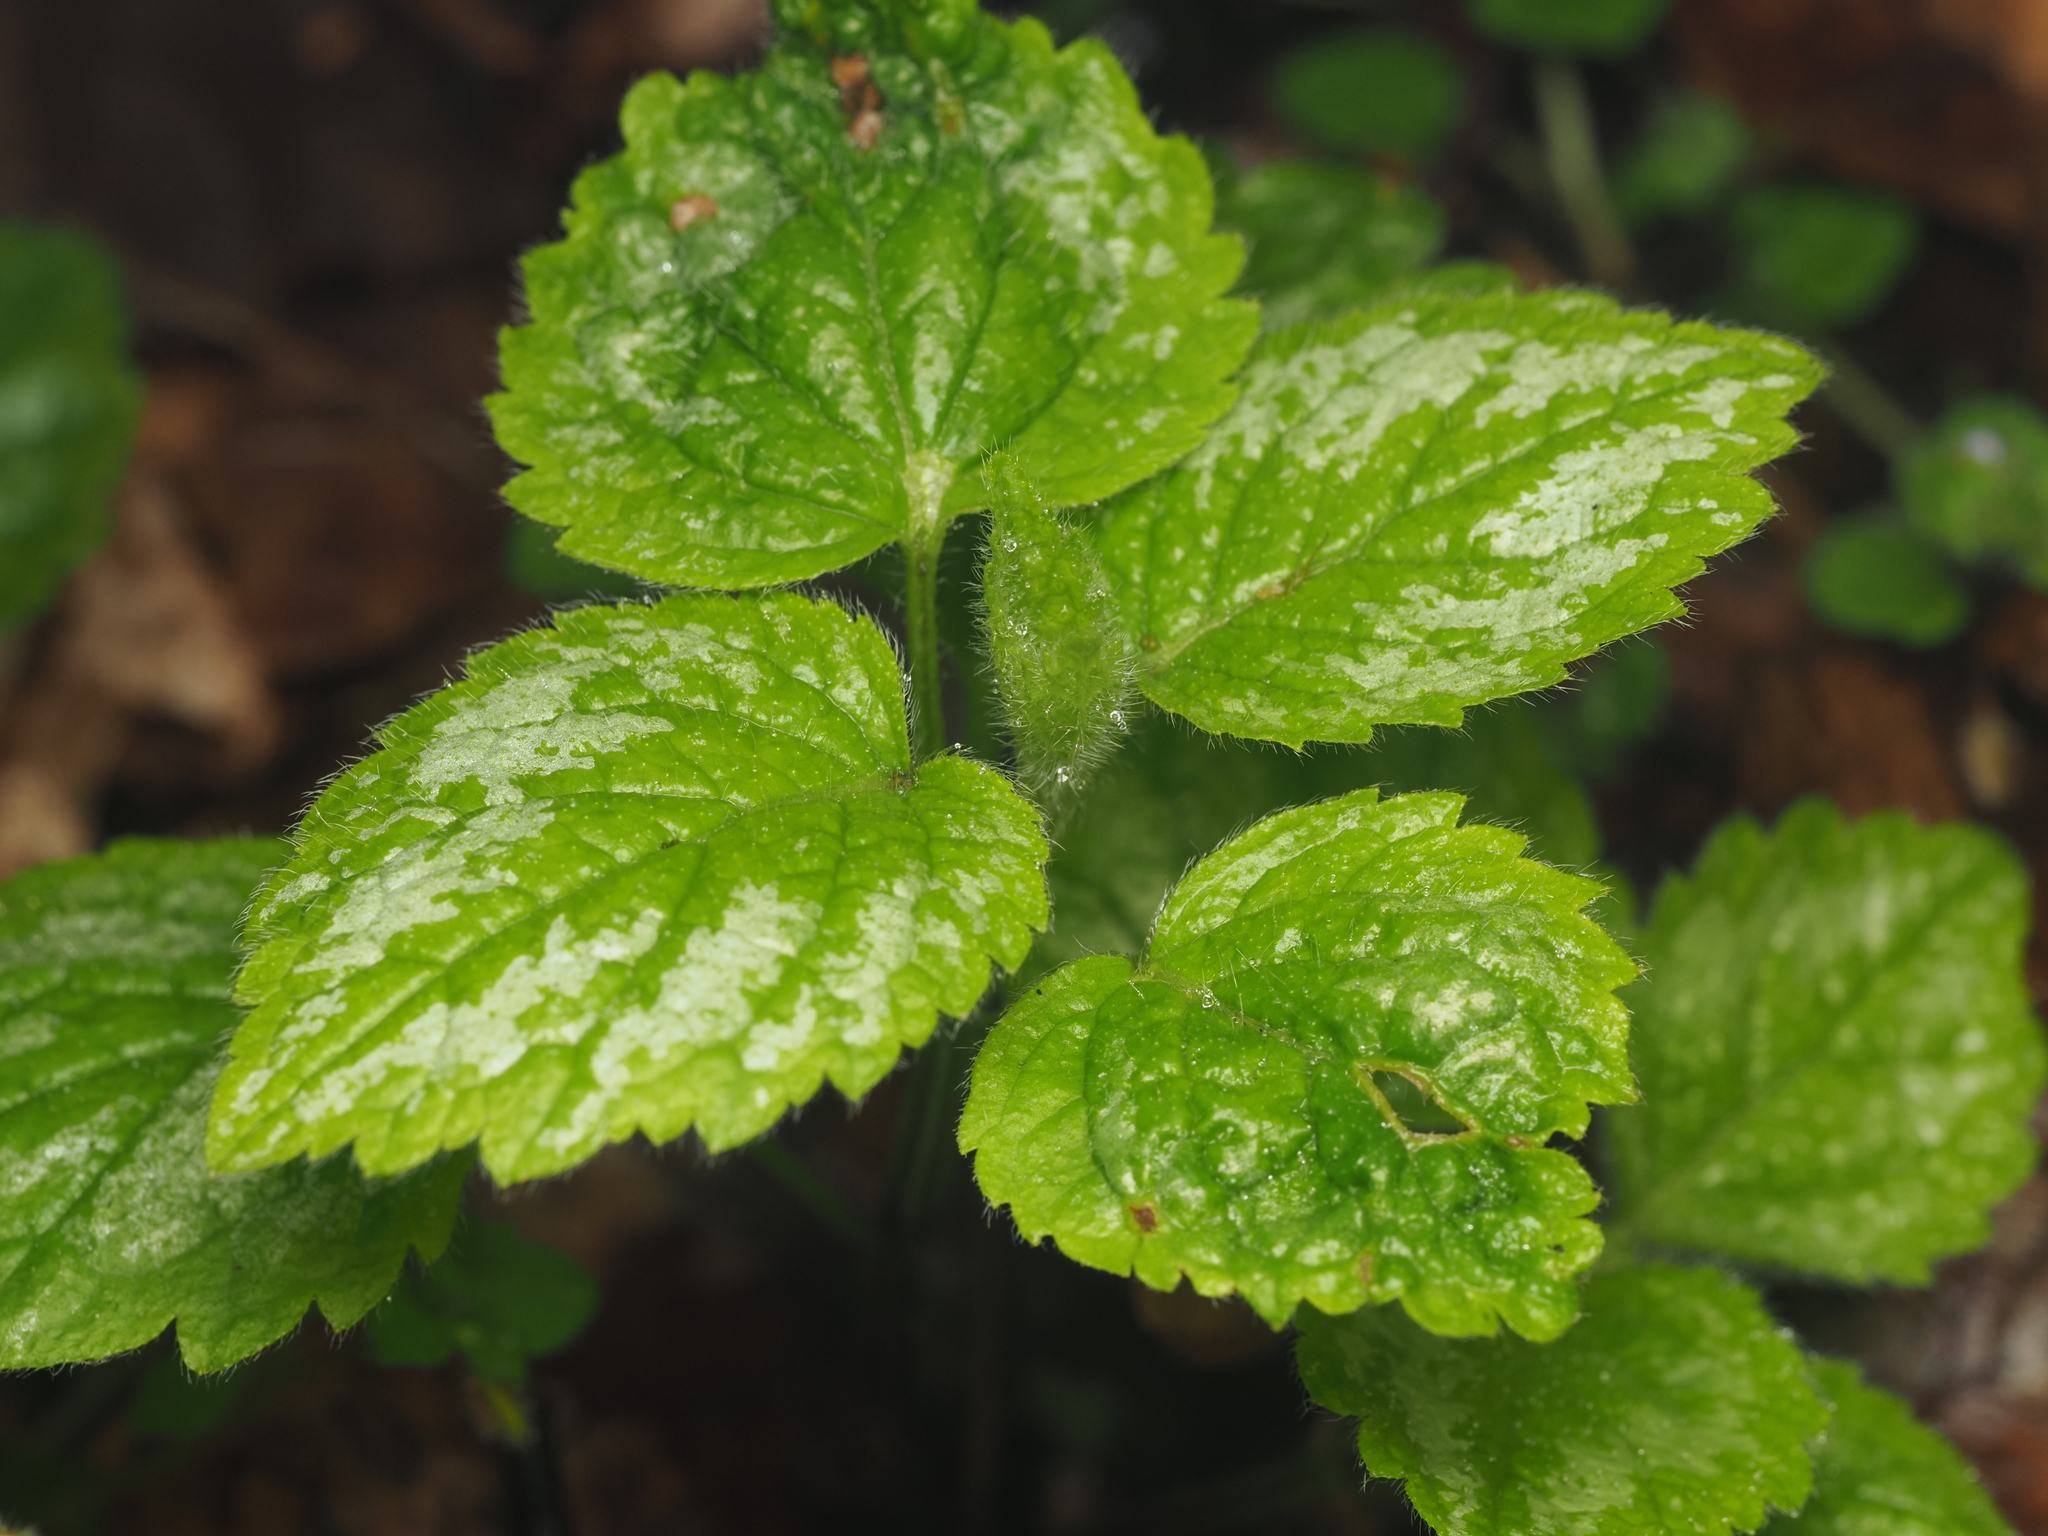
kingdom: Plantae
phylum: Tracheophyta
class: Magnoliopsida
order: Lamiales
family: Lamiaceae
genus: Lamium
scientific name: Lamium galeobdolon
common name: Yellow archangel
